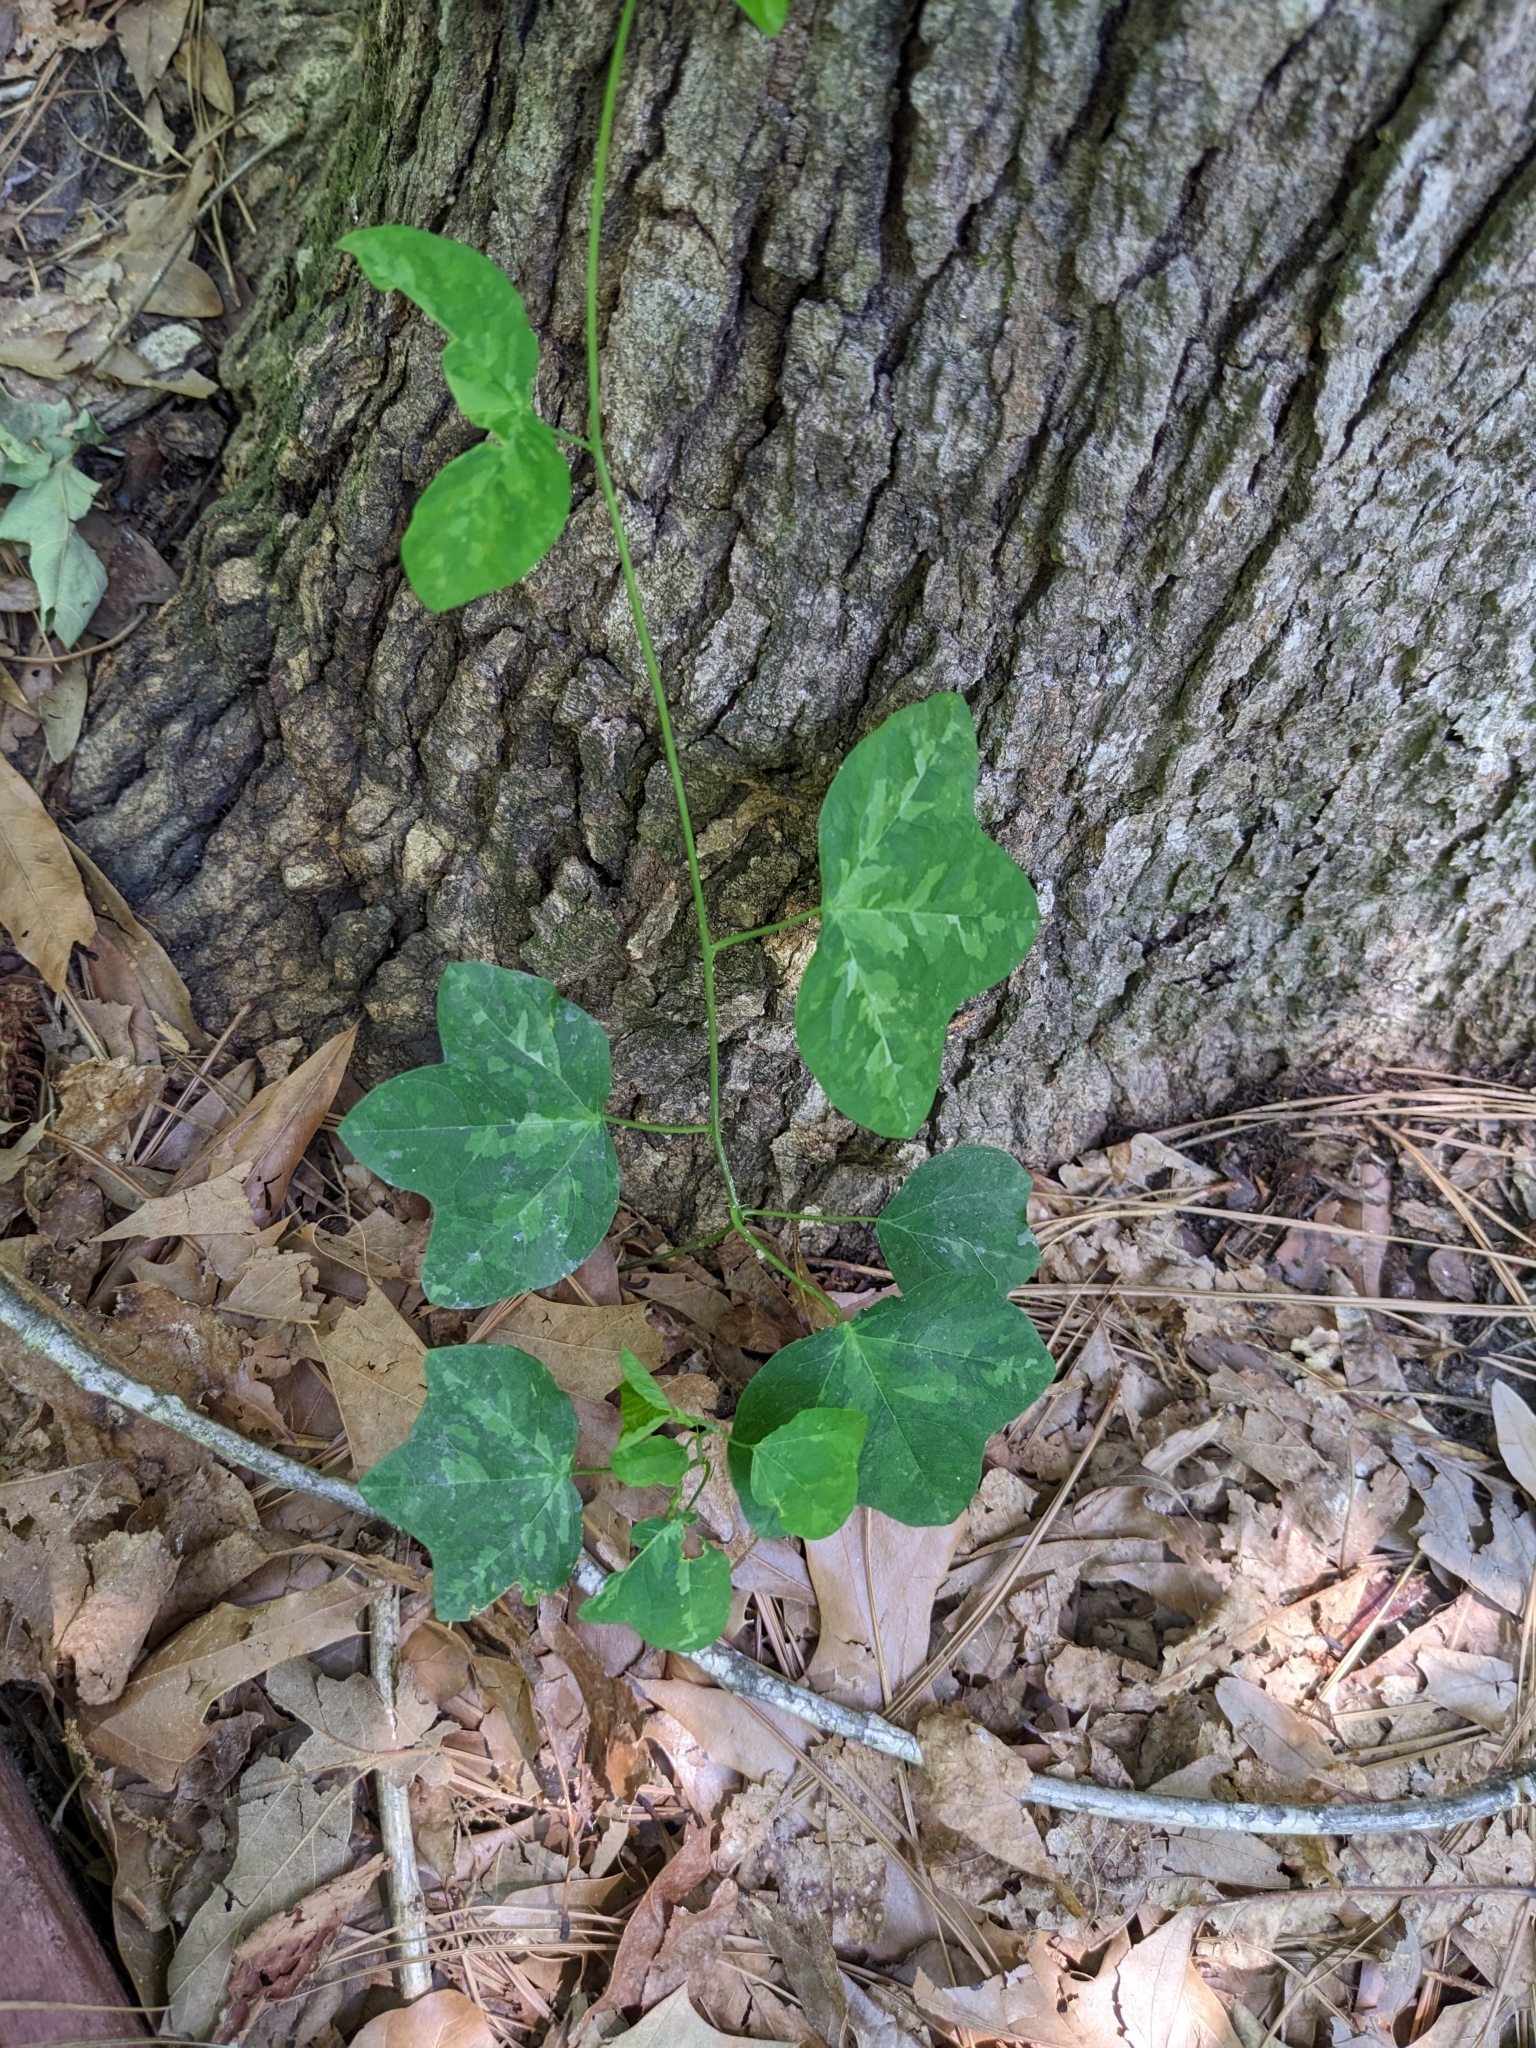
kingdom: Plantae
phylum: Tracheophyta
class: Magnoliopsida
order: Malpighiales
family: Passifloraceae
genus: Passiflora
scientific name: Passiflora lutea
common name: Yellow passionflower
